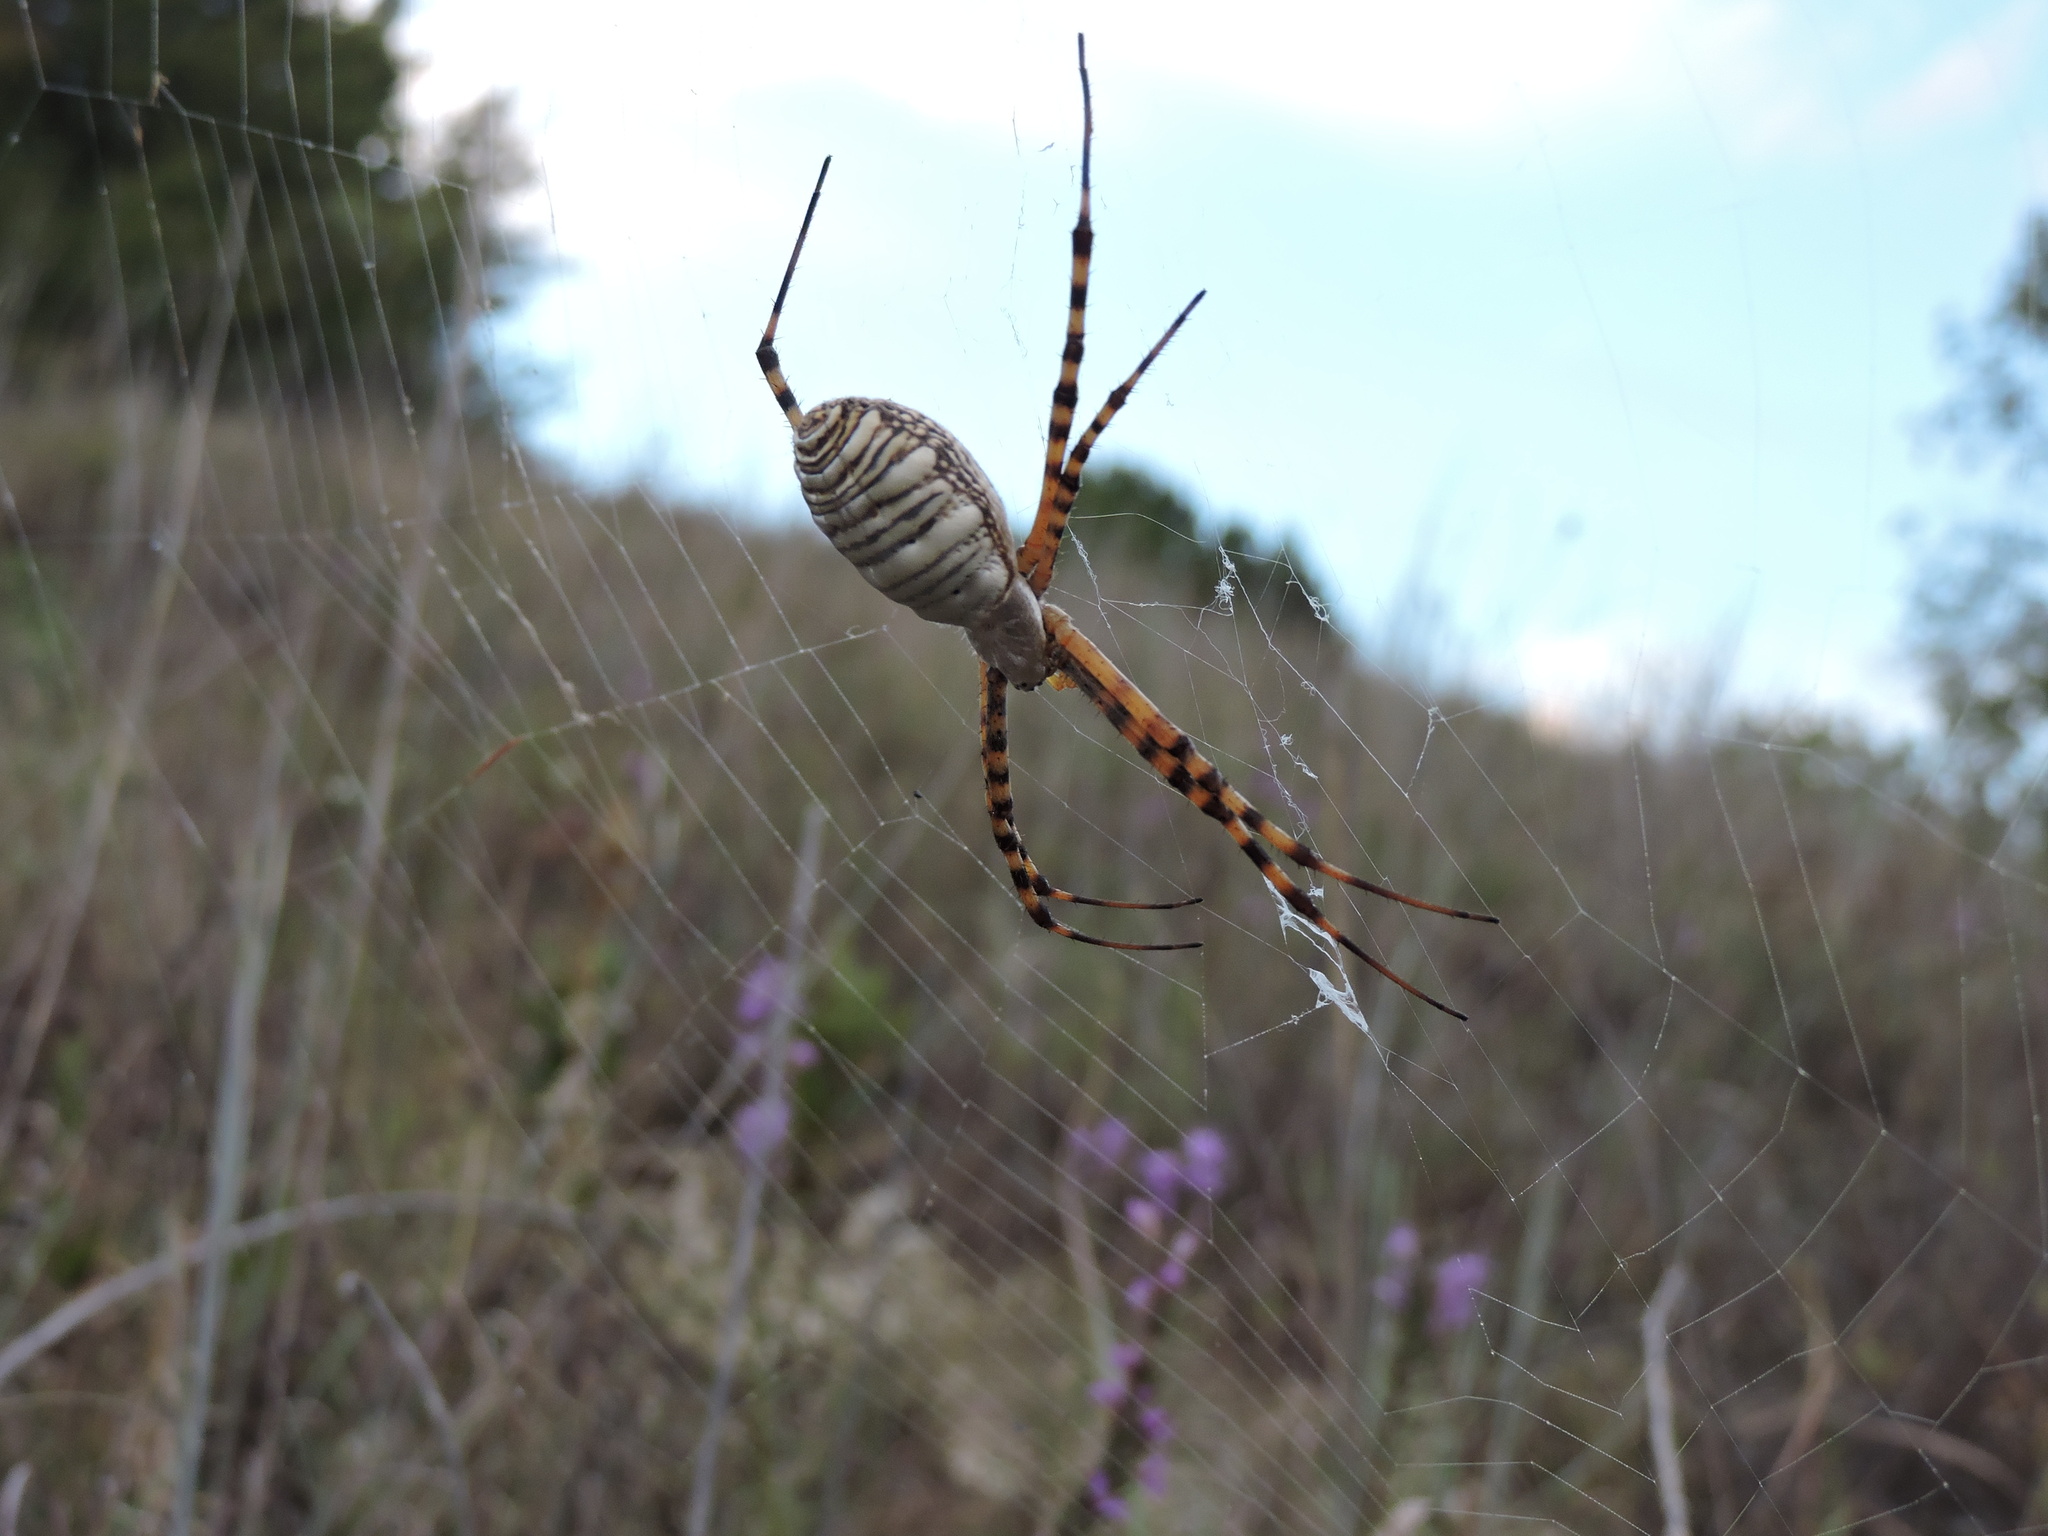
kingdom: Animalia
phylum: Arthropoda
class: Arachnida
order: Araneae
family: Araneidae
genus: Argiope
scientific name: Argiope trifasciata
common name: Banded garden spider
